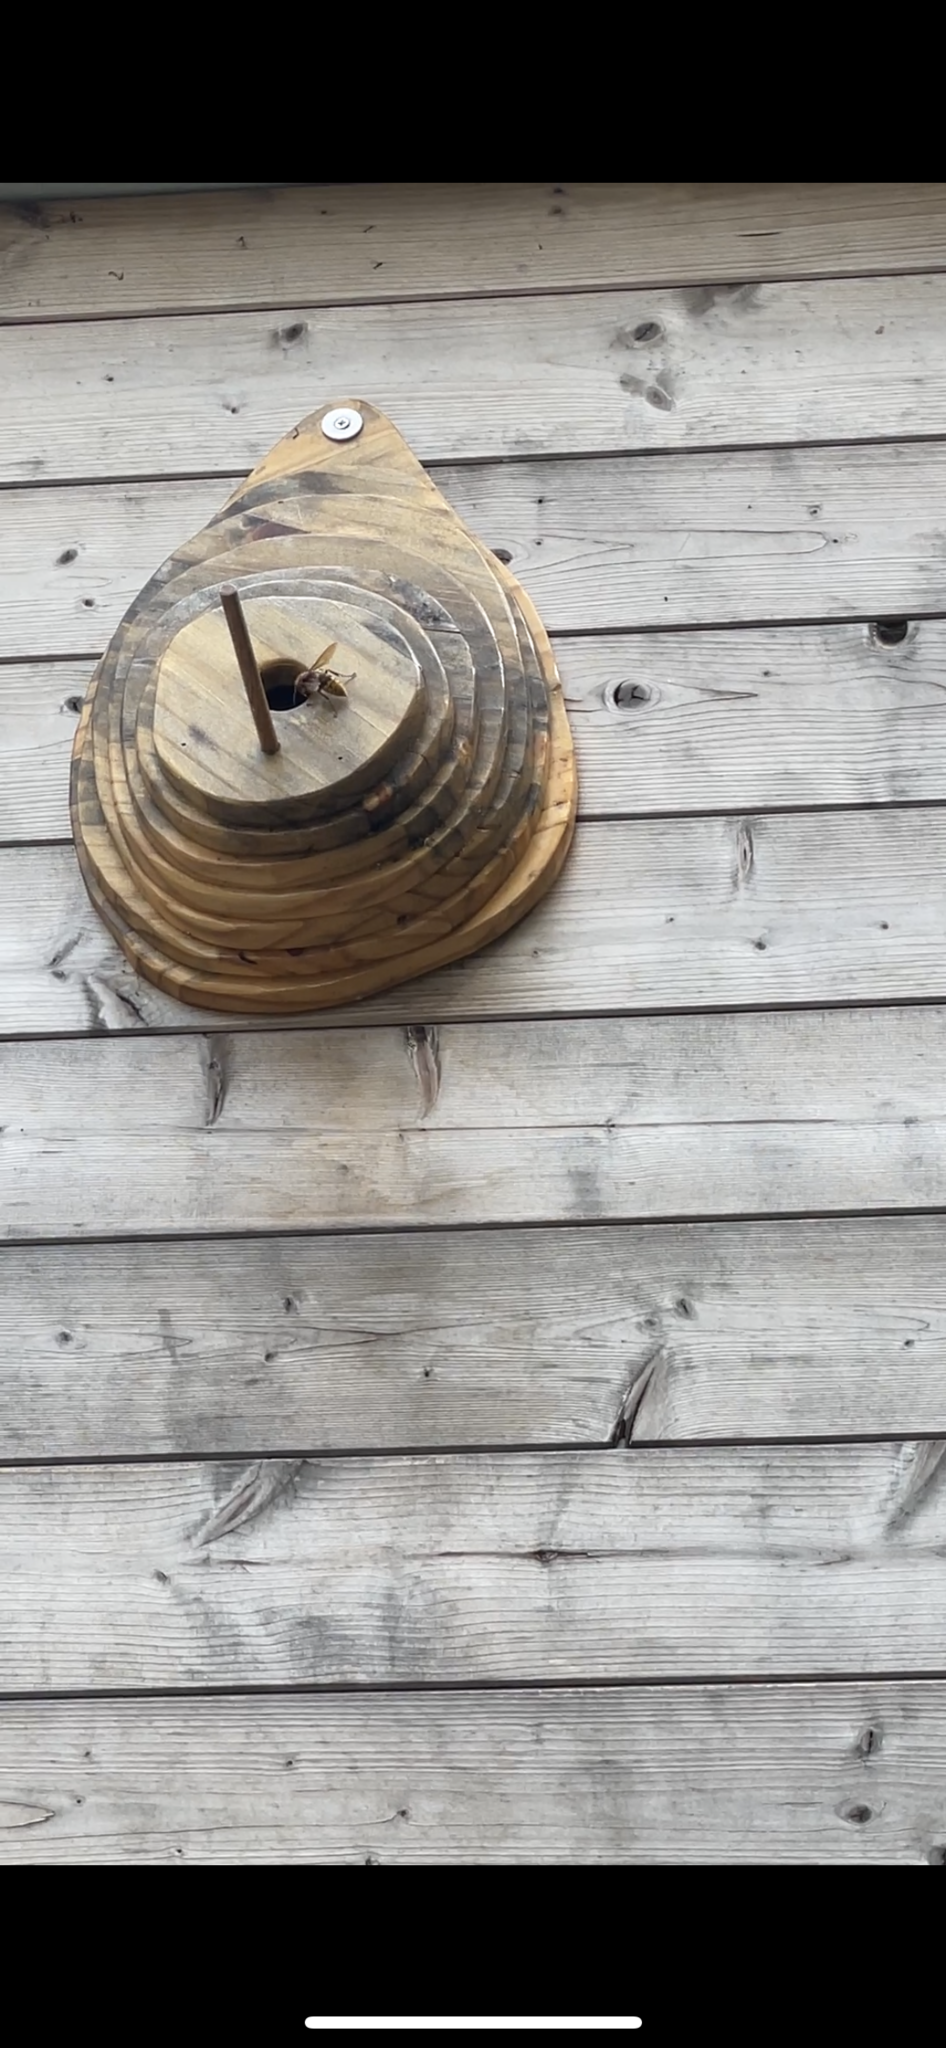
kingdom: Animalia
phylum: Arthropoda
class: Insecta
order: Hymenoptera
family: Vespidae
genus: Vespa
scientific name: Vespa crabro
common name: Hornet
